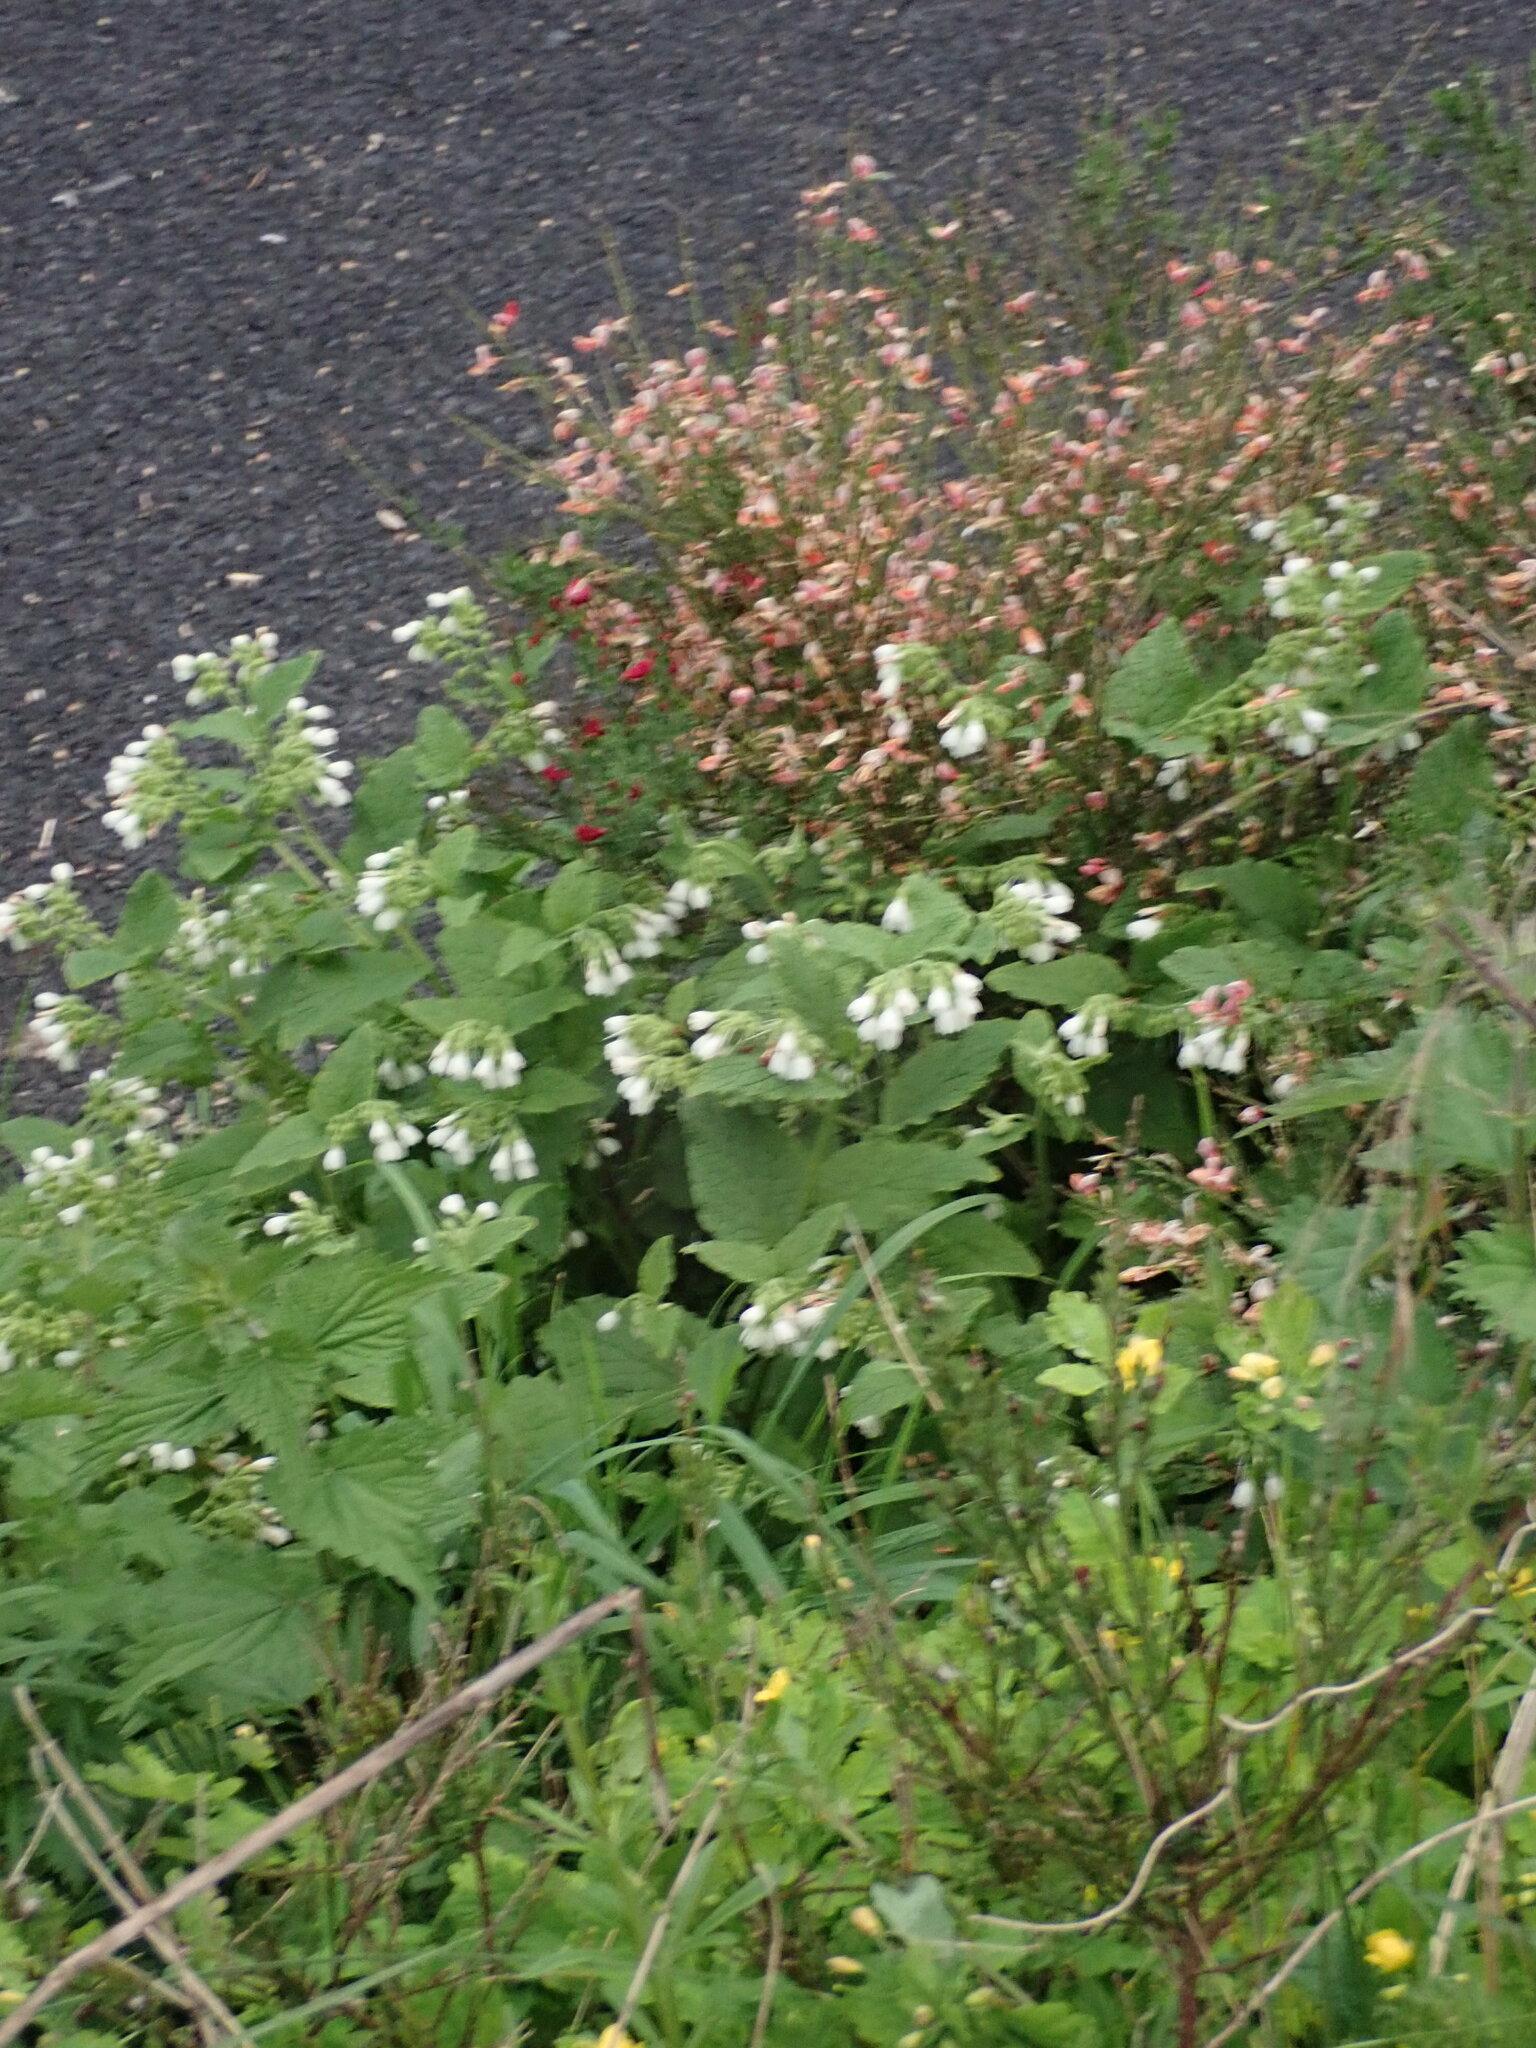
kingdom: Plantae
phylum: Tracheophyta
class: Magnoliopsida
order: Boraginales
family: Boraginaceae
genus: Symphytum
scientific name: Symphytum orientale
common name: White comfrey
